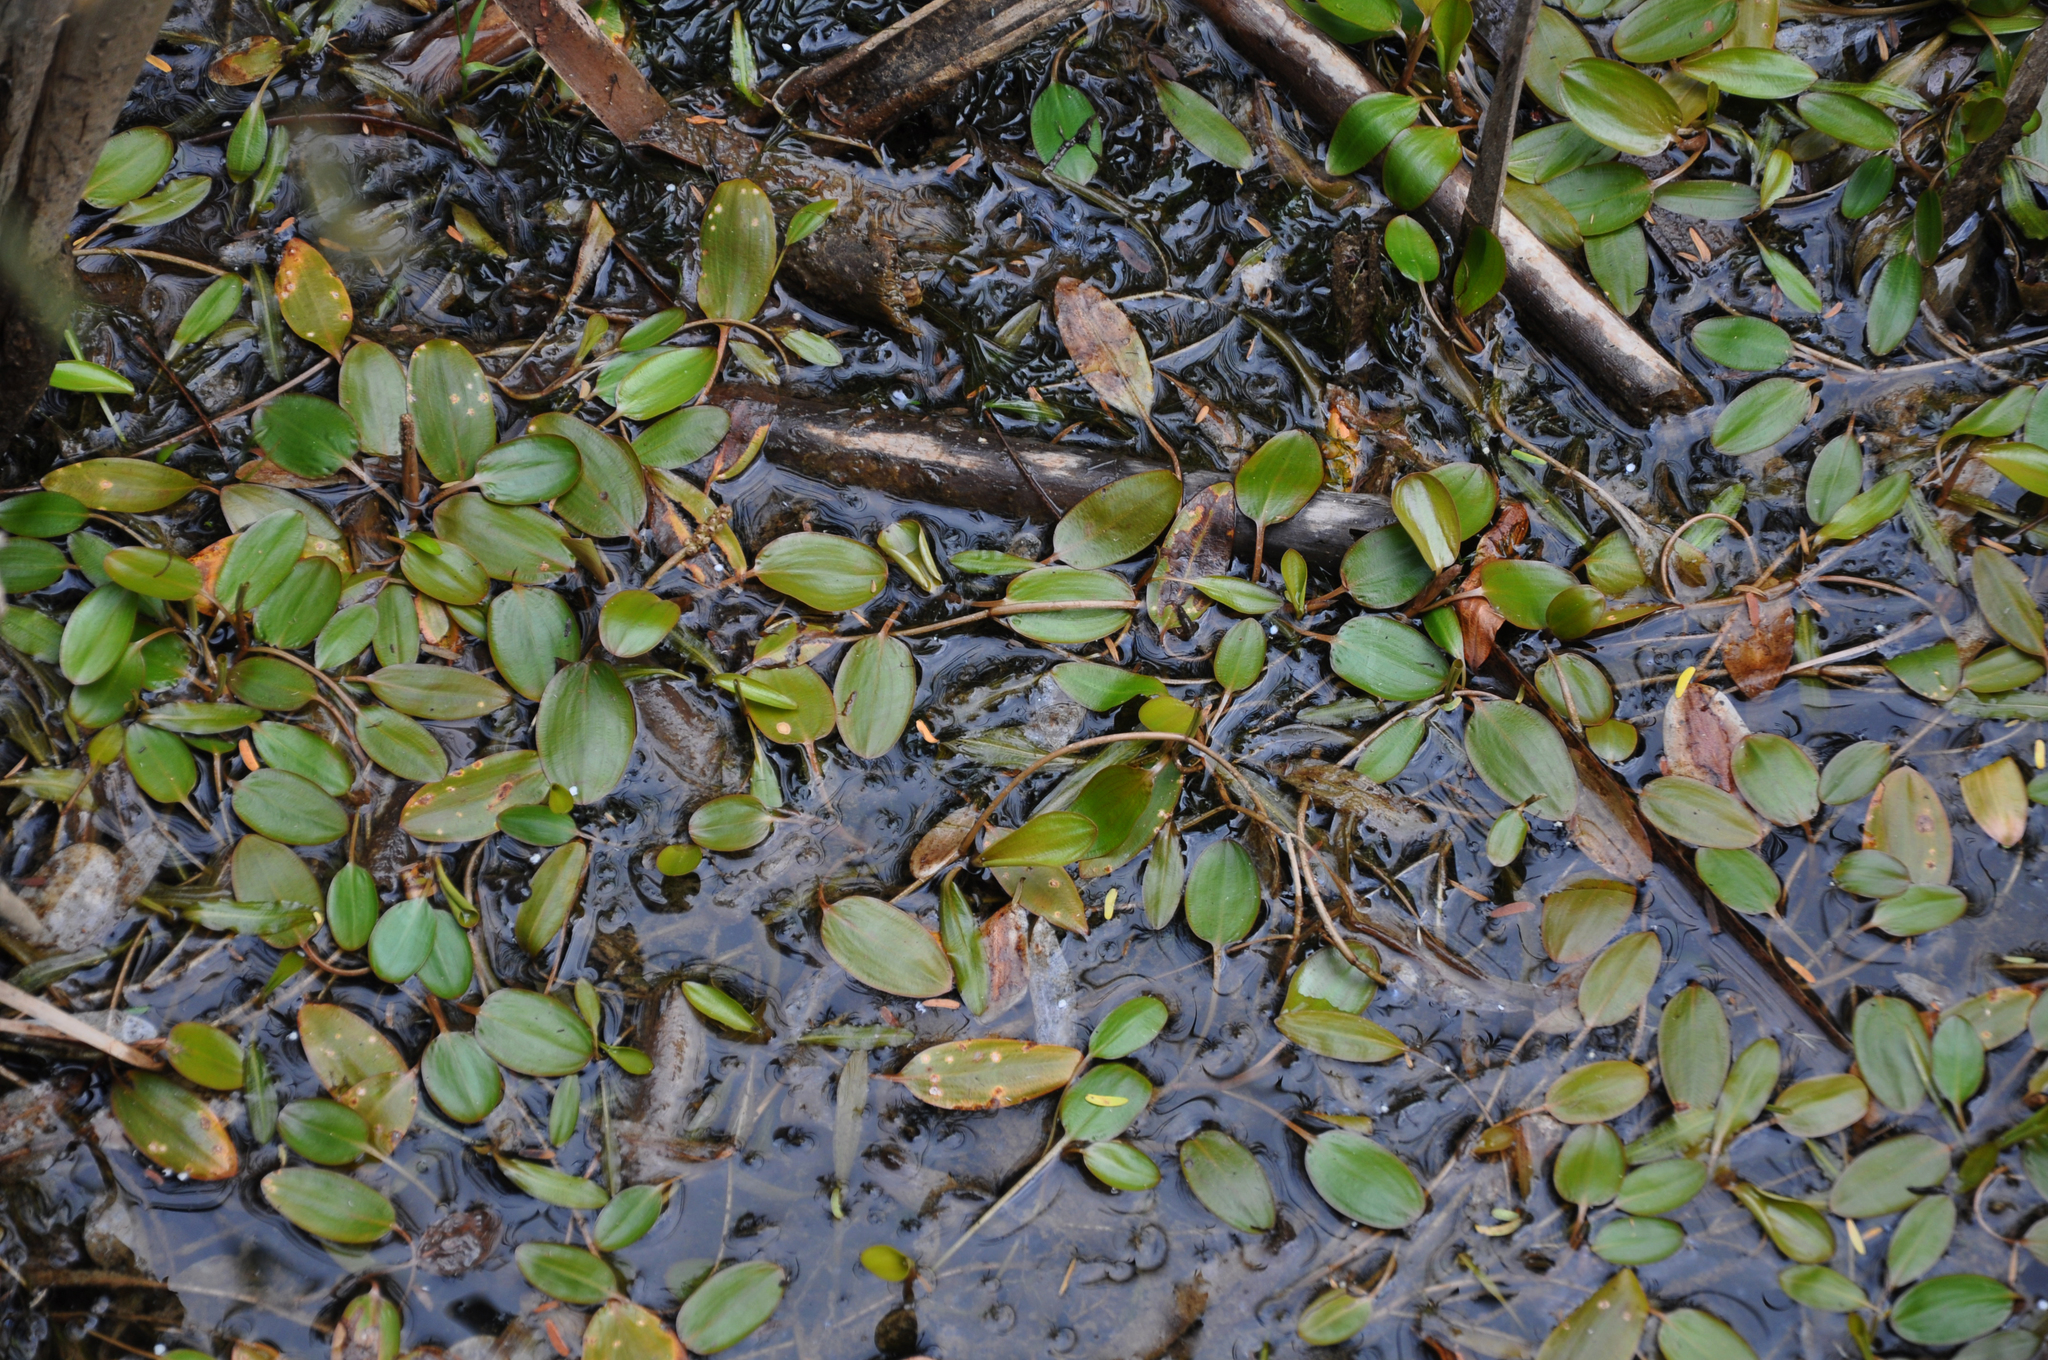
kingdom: Plantae
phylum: Tracheophyta
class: Liliopsida
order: Alismatales
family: Potamogetonaceae
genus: Potamogeton
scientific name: Potamogeton cheesemanii
